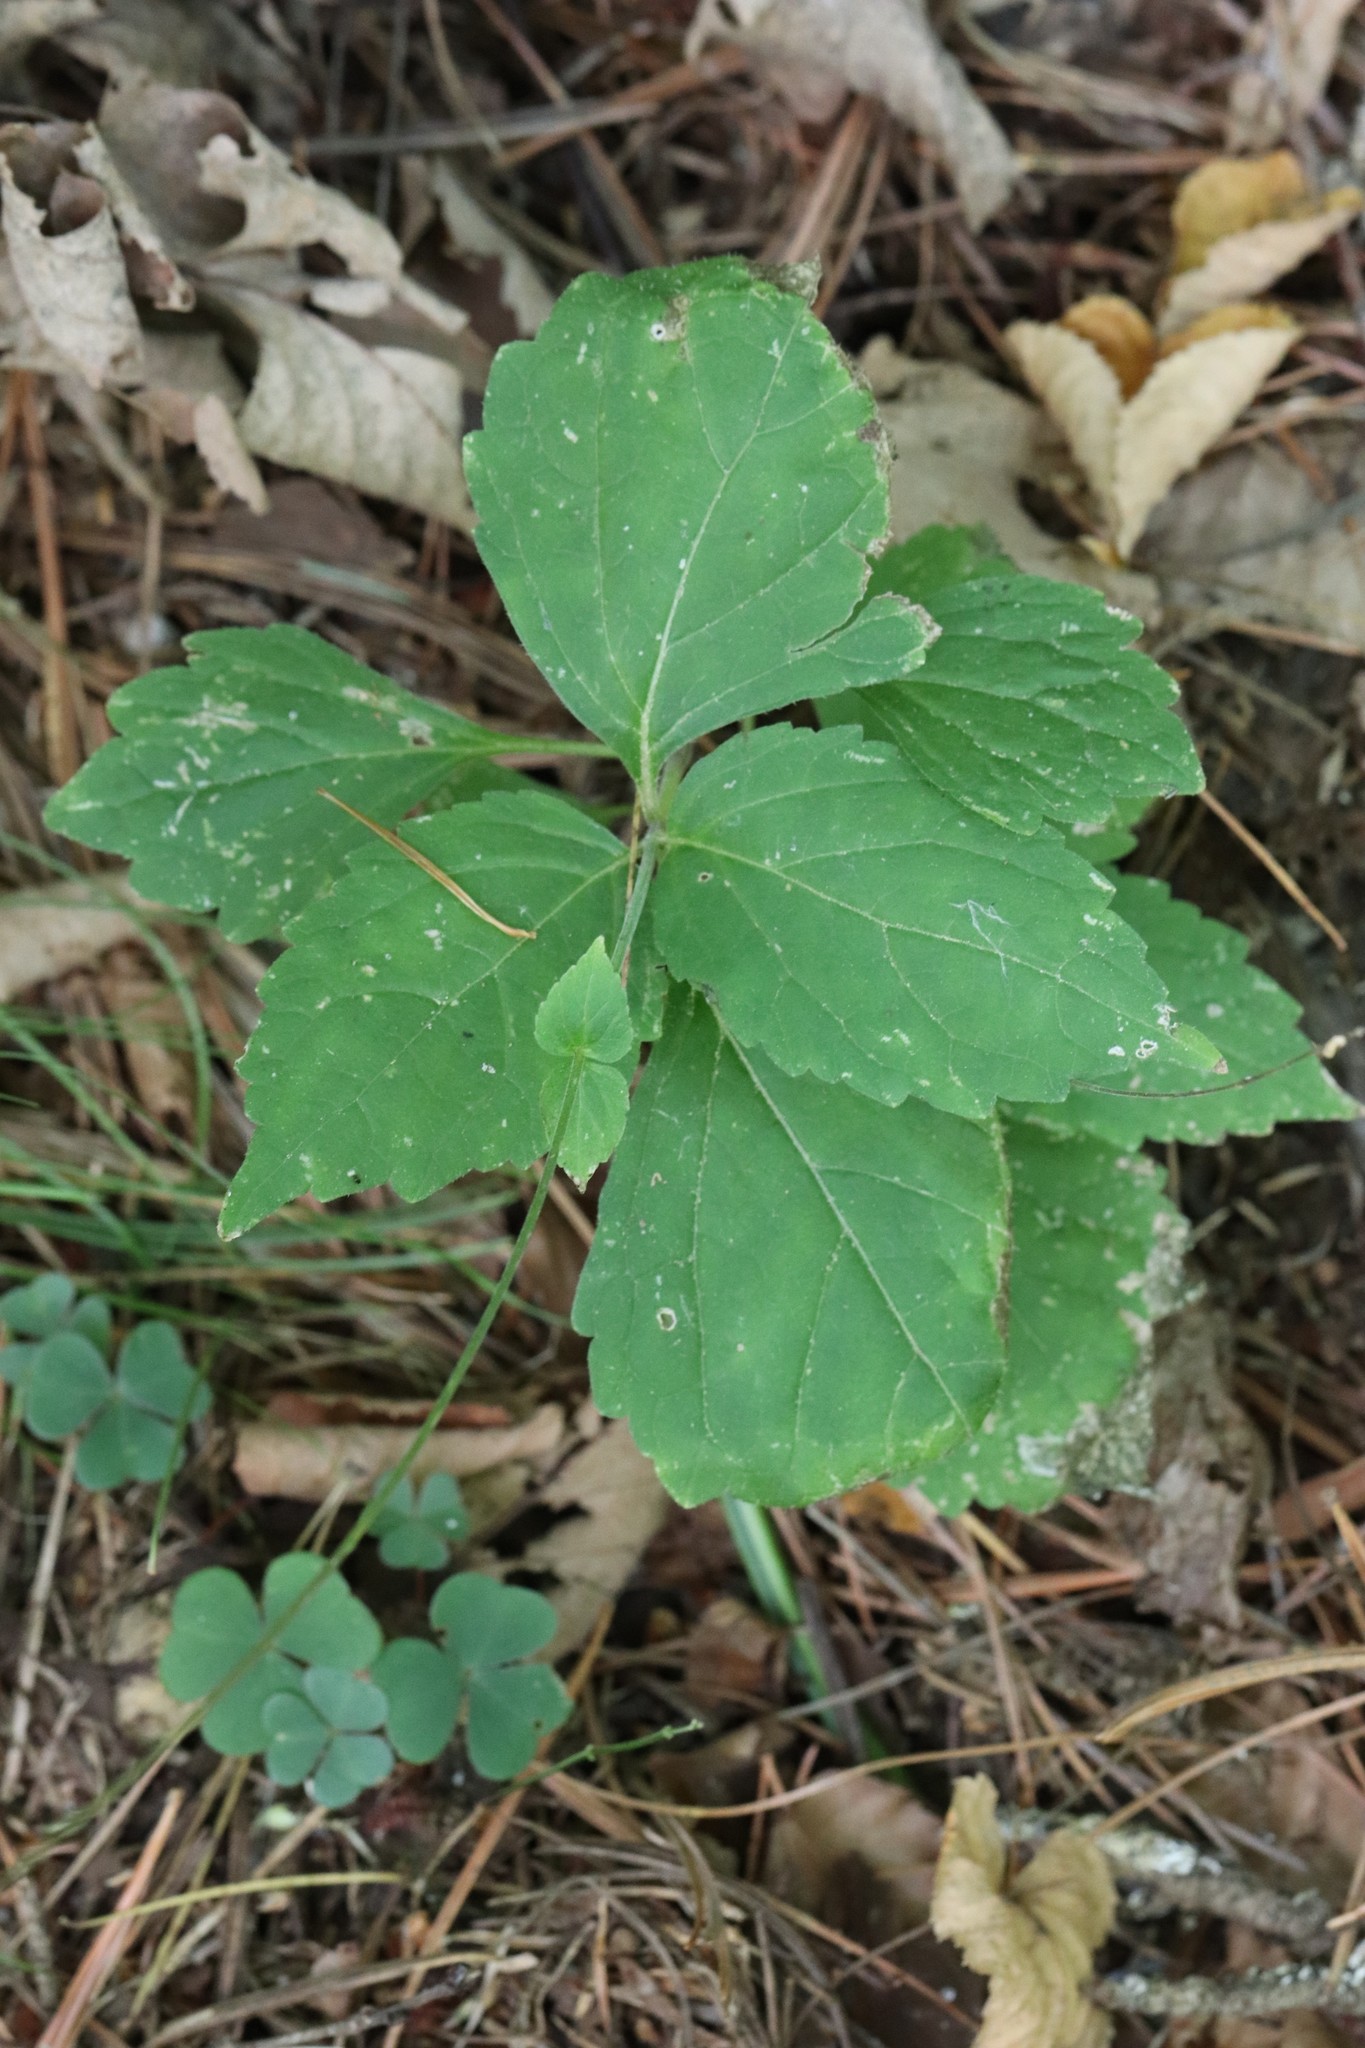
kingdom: Plantae
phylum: Tracheophyta
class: Magnoliopsida
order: Lamiales
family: Phrymaceae
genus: Phryma
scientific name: Phryma nana
